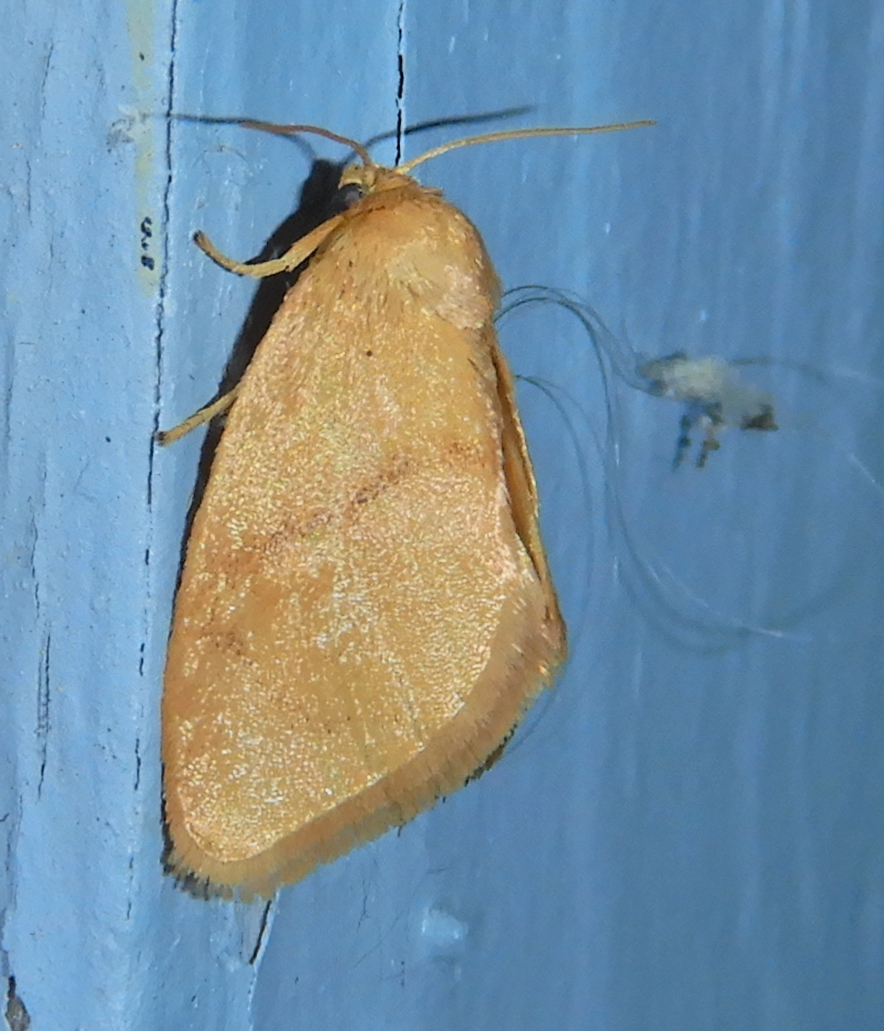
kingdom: Animalia
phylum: Arthropoda
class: Insecta
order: Lepidoptera
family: Limacodidae
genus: Tortricidia
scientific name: Tortricidia pallida
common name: Red-crossed button slug moth
